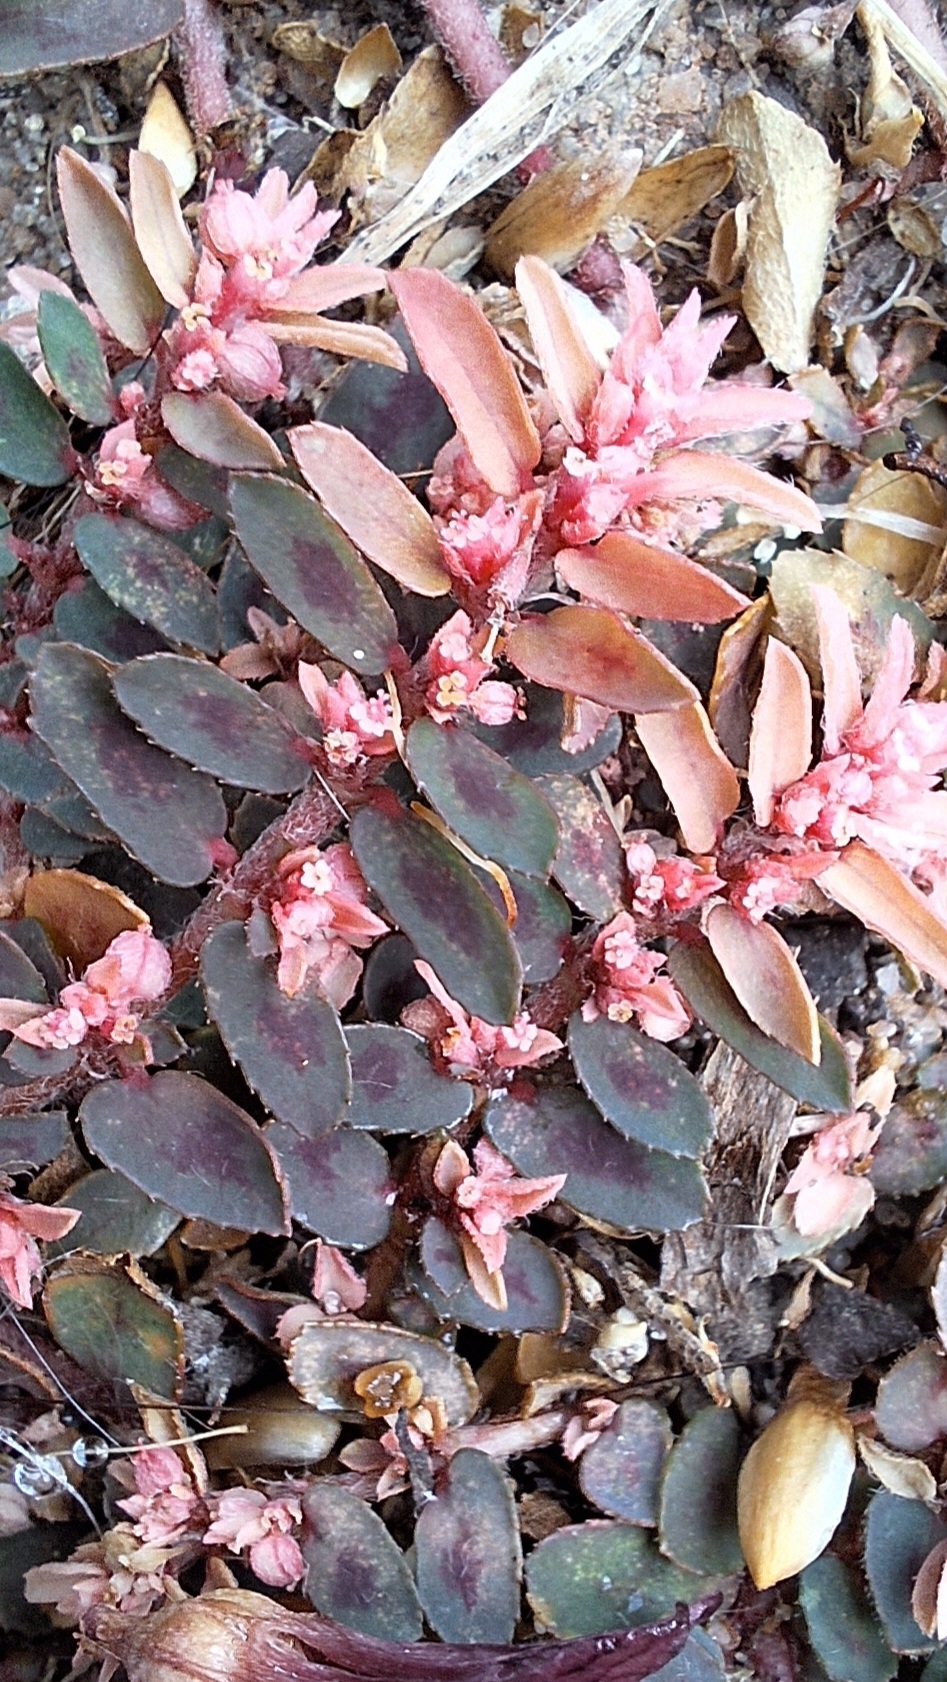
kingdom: Plantae
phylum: Tracheophyta
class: Magnoliopsida
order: Malpighiales
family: Euphorbiaceae
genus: Euphorbia
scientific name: Euphorbia maculata
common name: Spotted spurge
